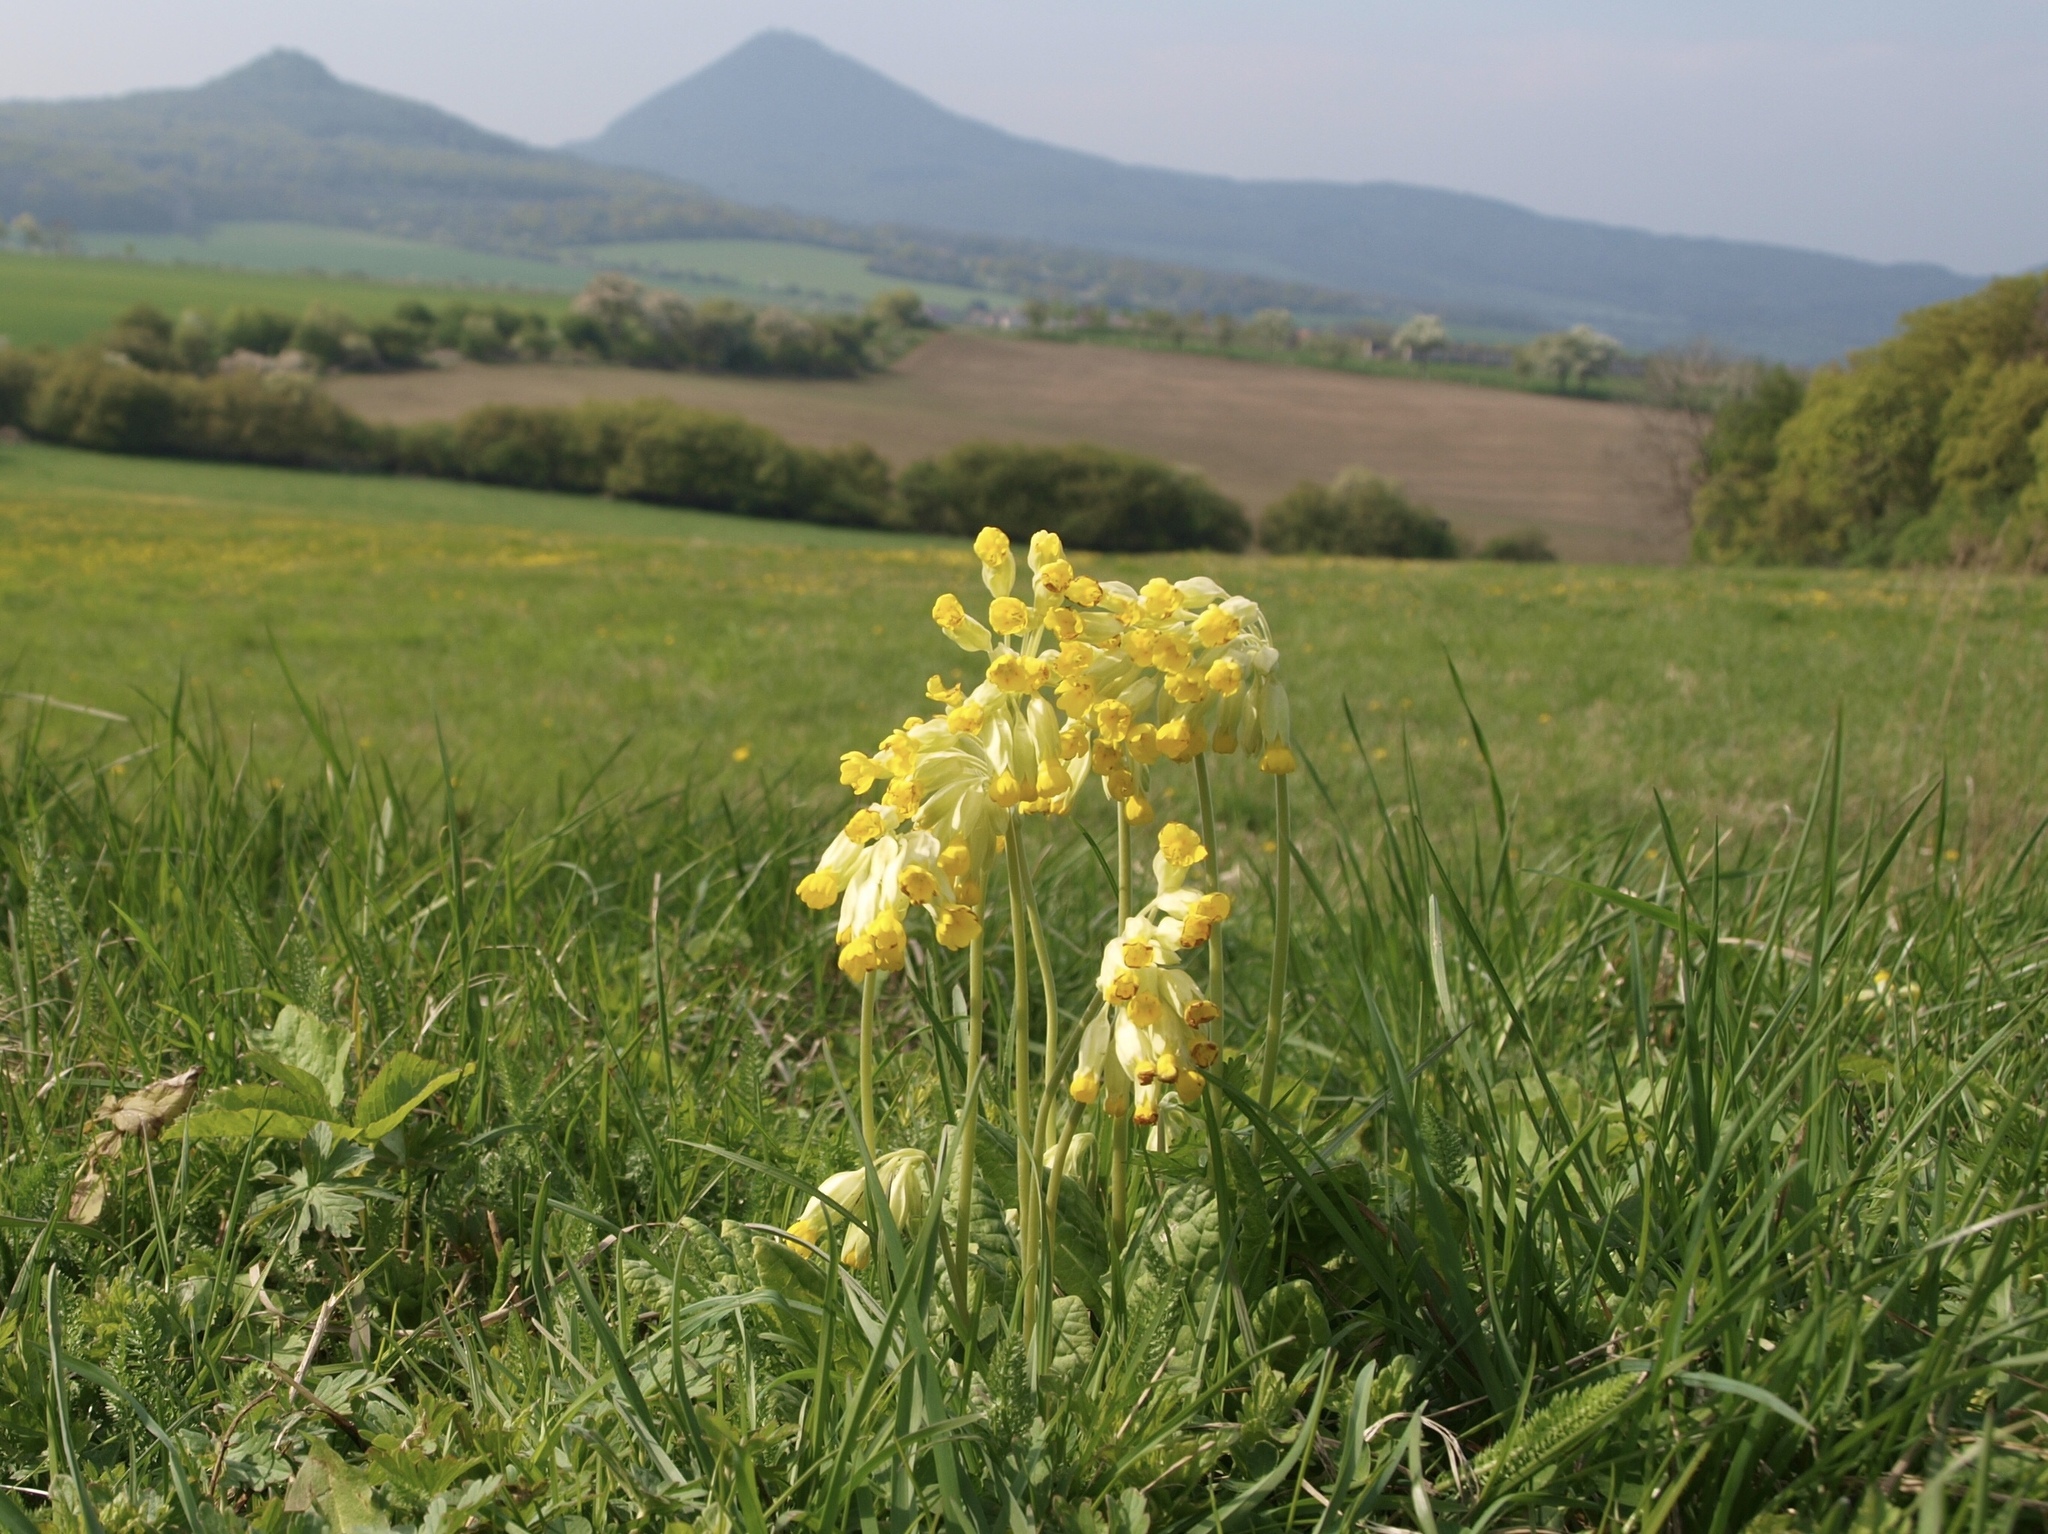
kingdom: Plantae
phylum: Tracheophyta
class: Magnoliopsida
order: Ericales
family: Primulaceae
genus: Primula
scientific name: Primula veris
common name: Cowslip
